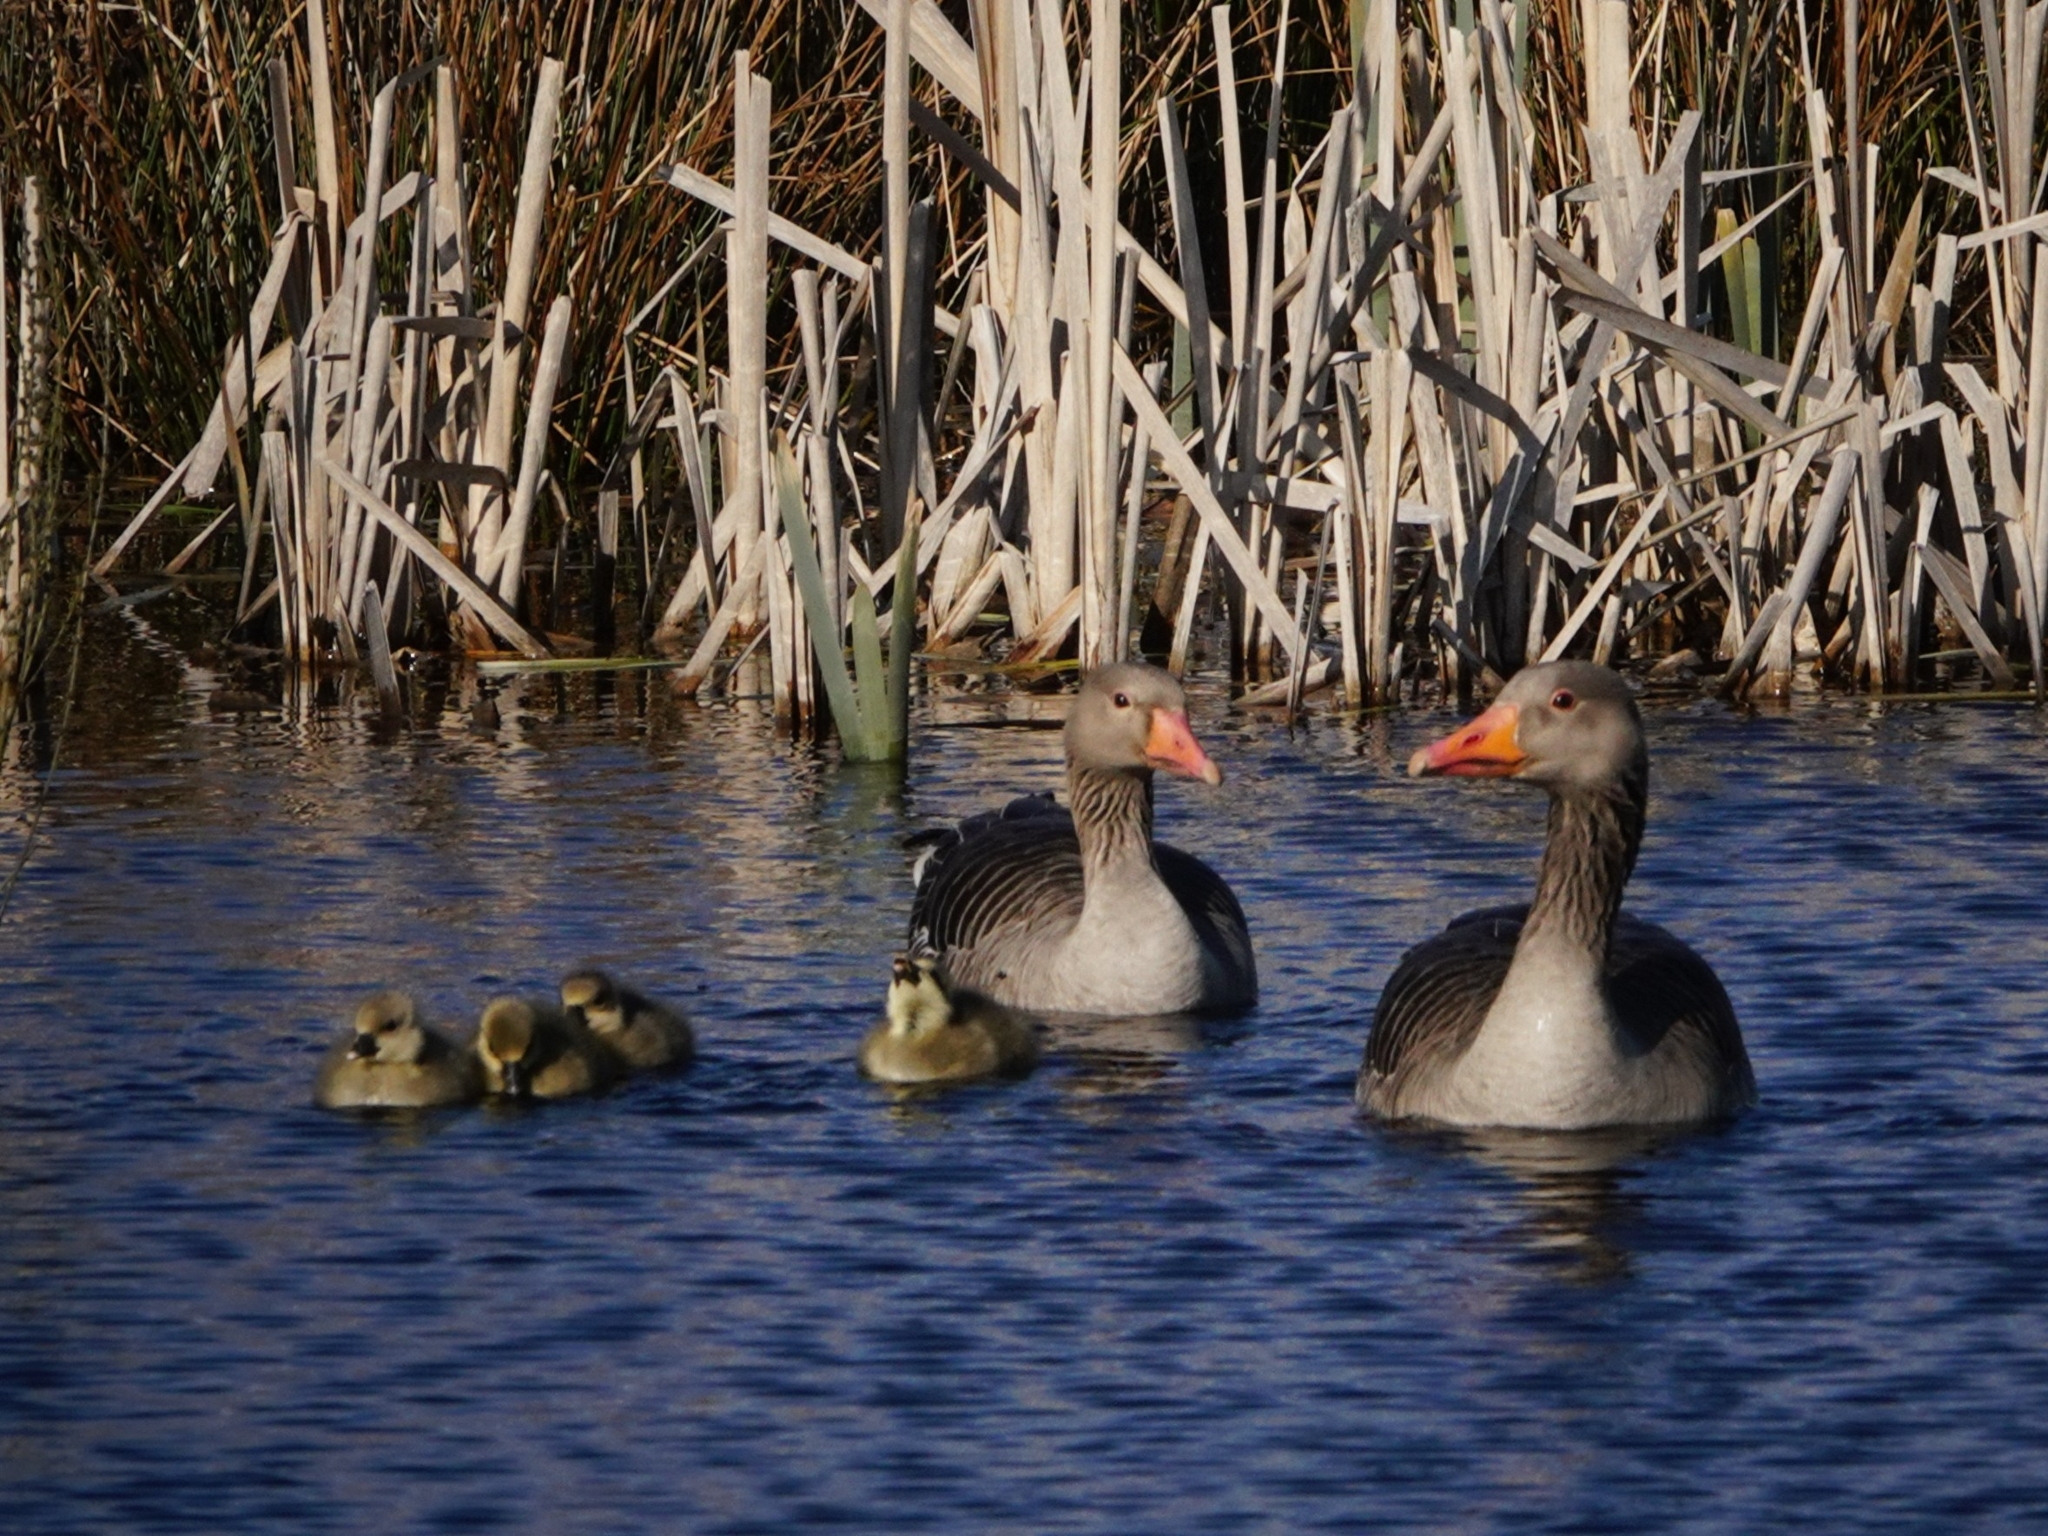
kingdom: Animalia
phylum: Chordata
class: Aves
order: Anseriformes
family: Anatidae
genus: Anser
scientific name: Anser anser
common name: Greylag goose
